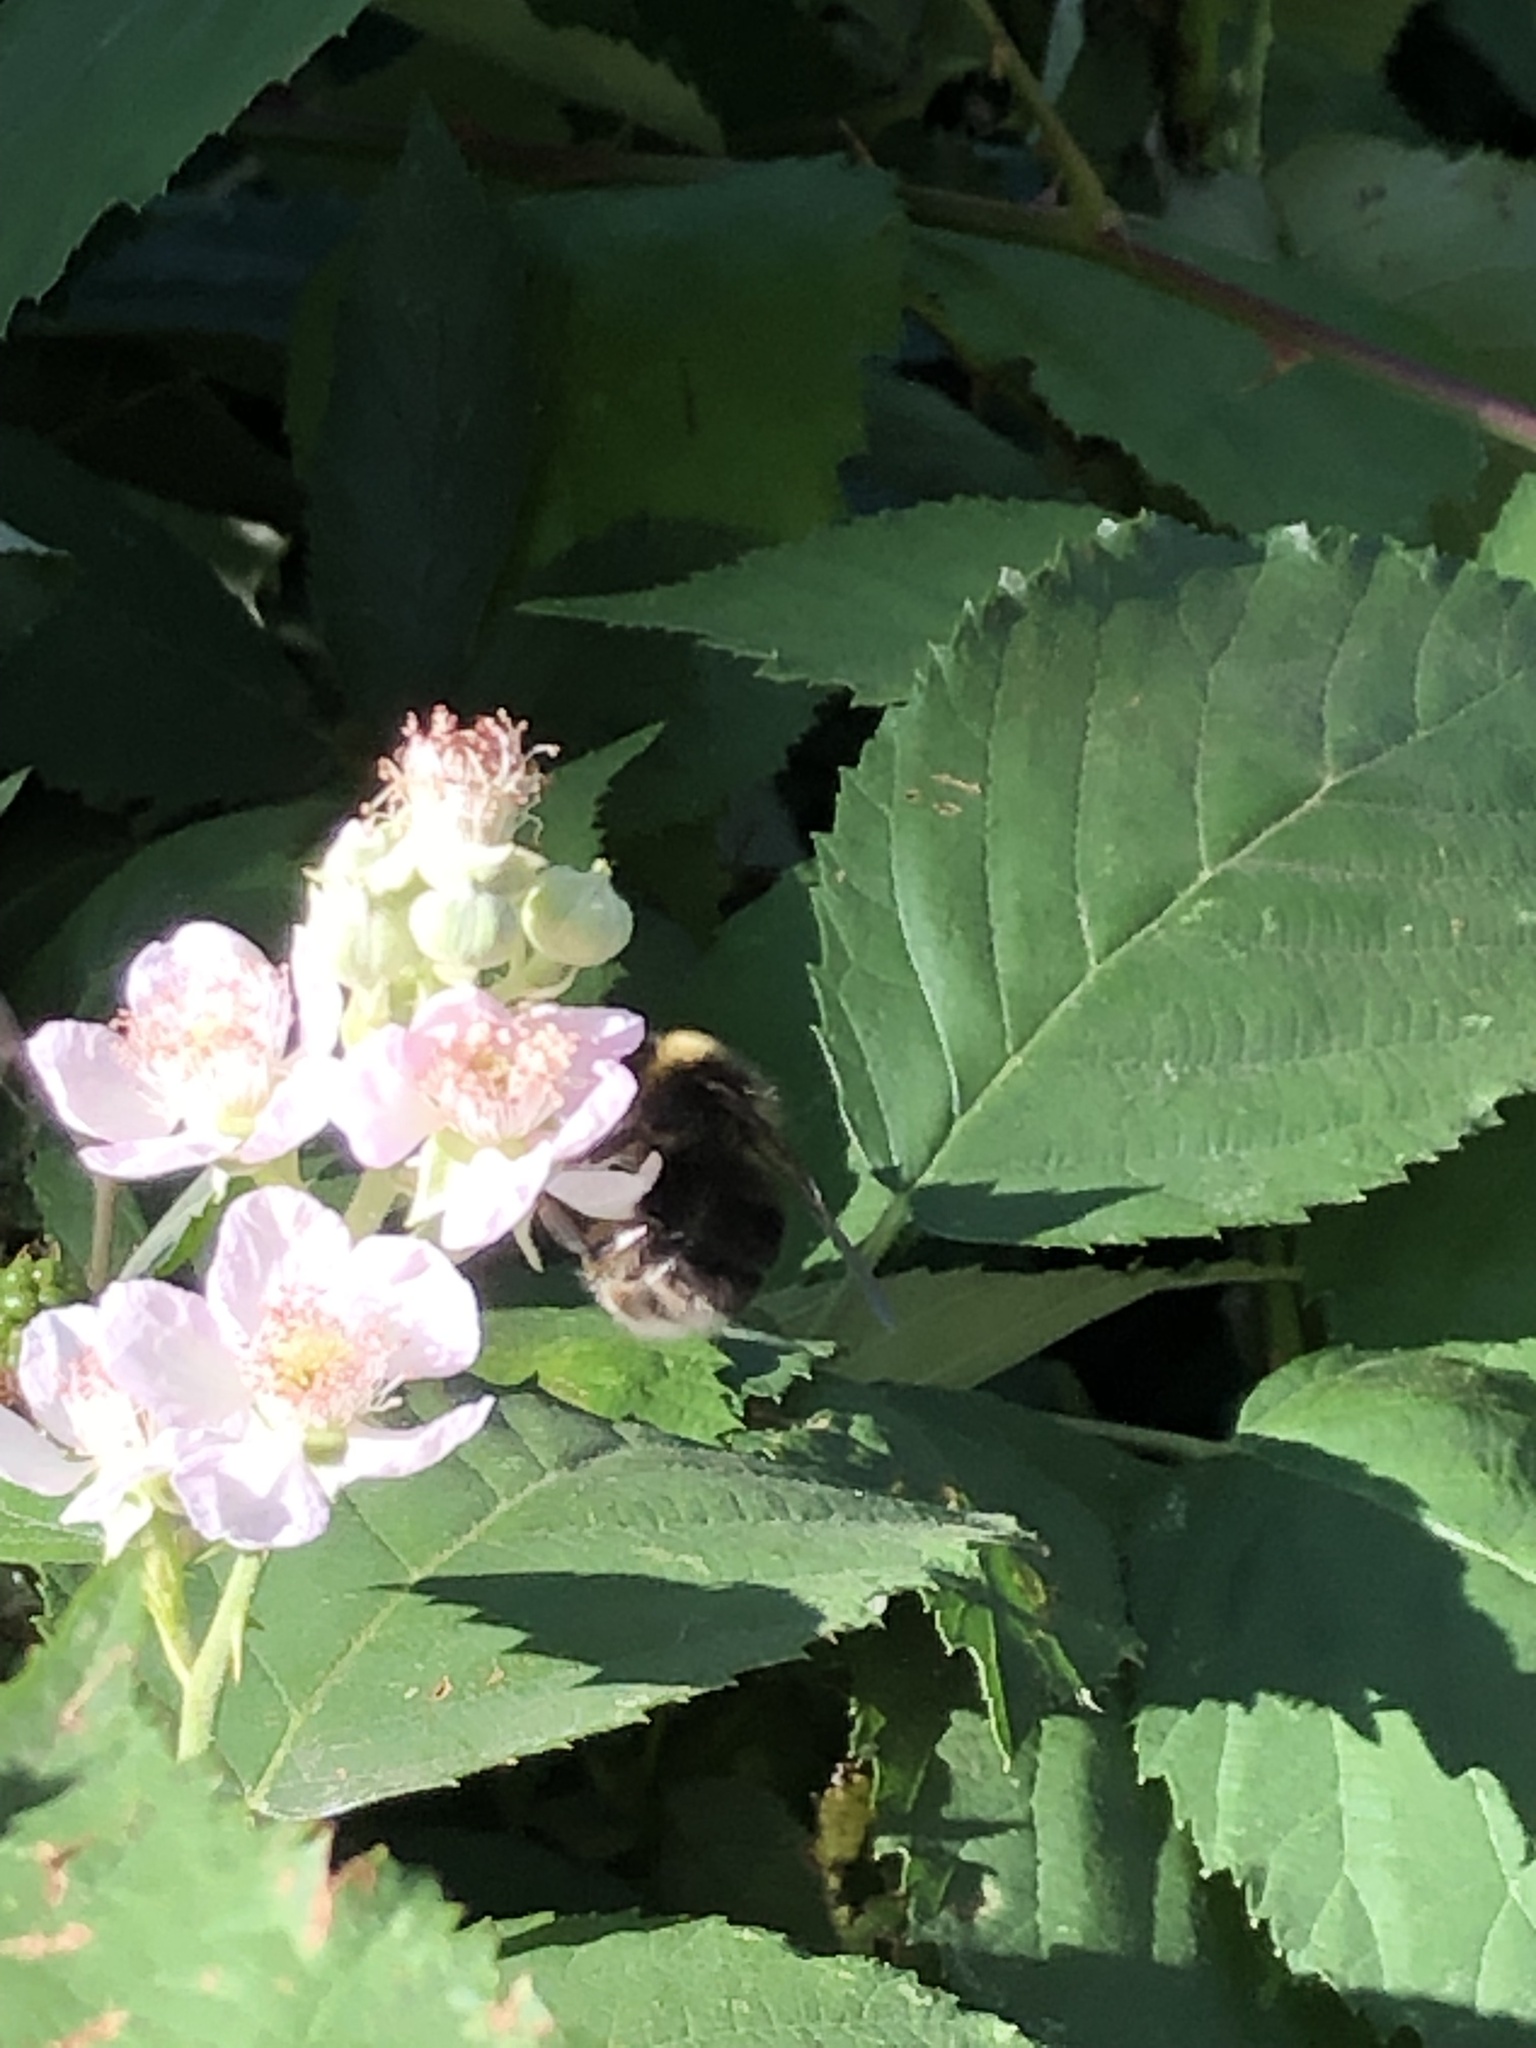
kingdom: Animalia
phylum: Arthropoda
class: Insecta
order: Hymenoptera
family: Apidae
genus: Bombus
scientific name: Bombus occidentalis
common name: Western bumble bee
